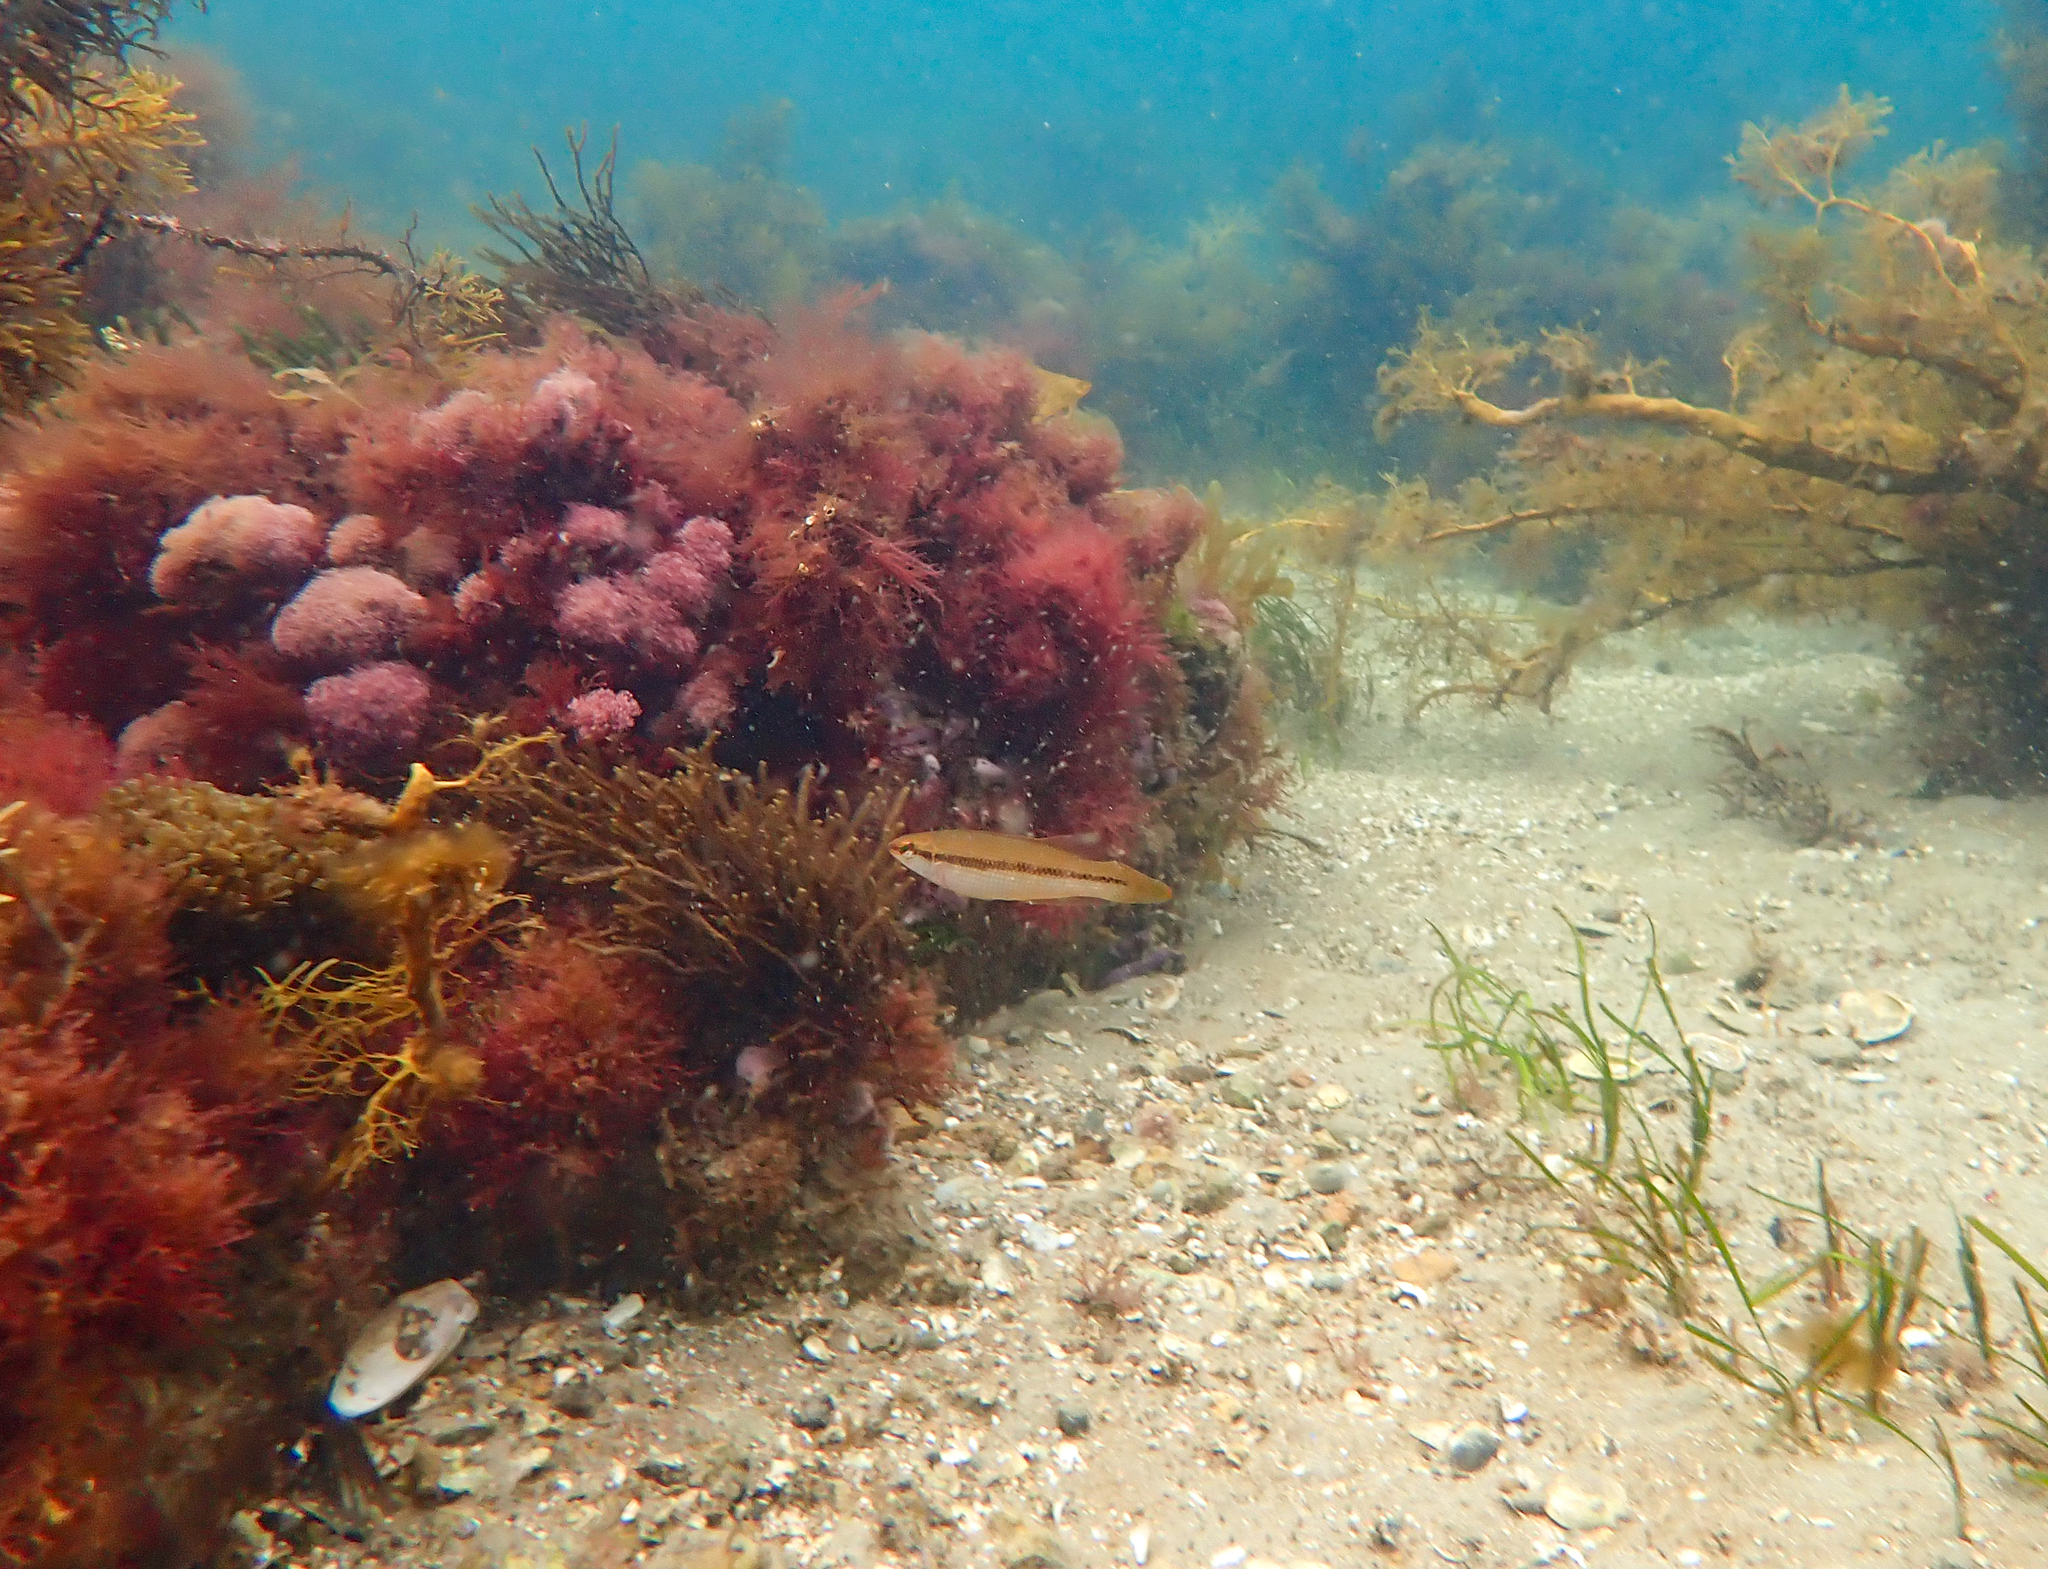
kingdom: Animalia
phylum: Chordata
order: Perciformes
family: Odacidae
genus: Neoodax
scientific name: Neoodax balteatus
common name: Ground mullet
